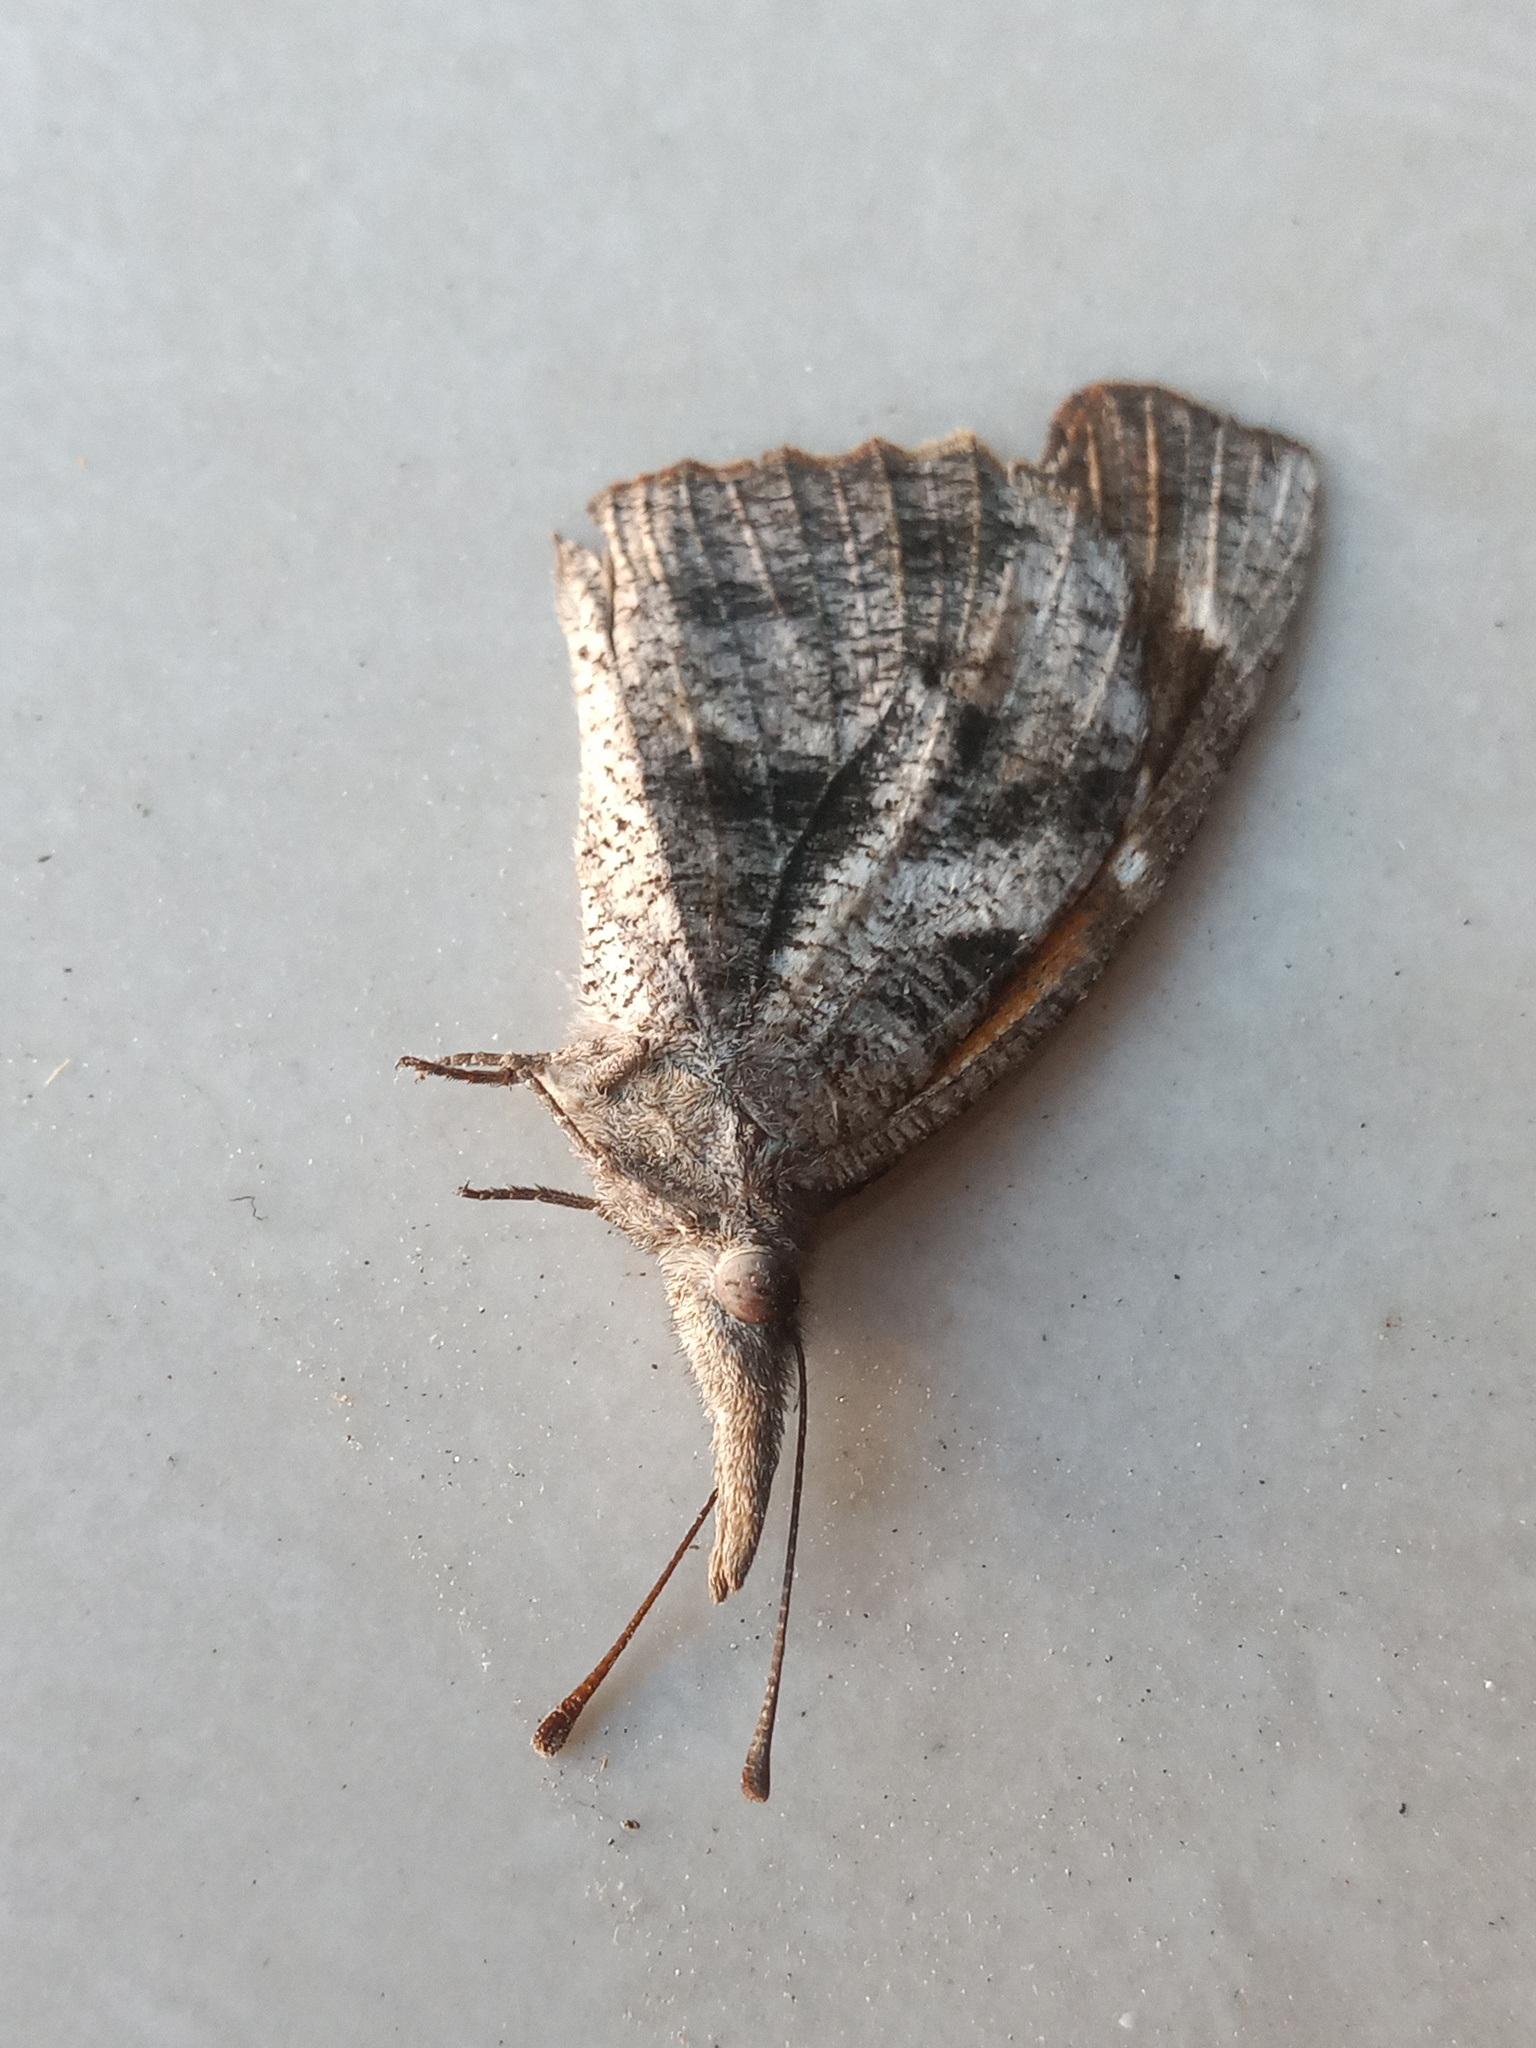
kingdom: Animalia
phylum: Arthropoda
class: Insecta
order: Lepidoptera
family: Nymphalidae
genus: Libytheana
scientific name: Libytheana carinenta
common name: American snout
